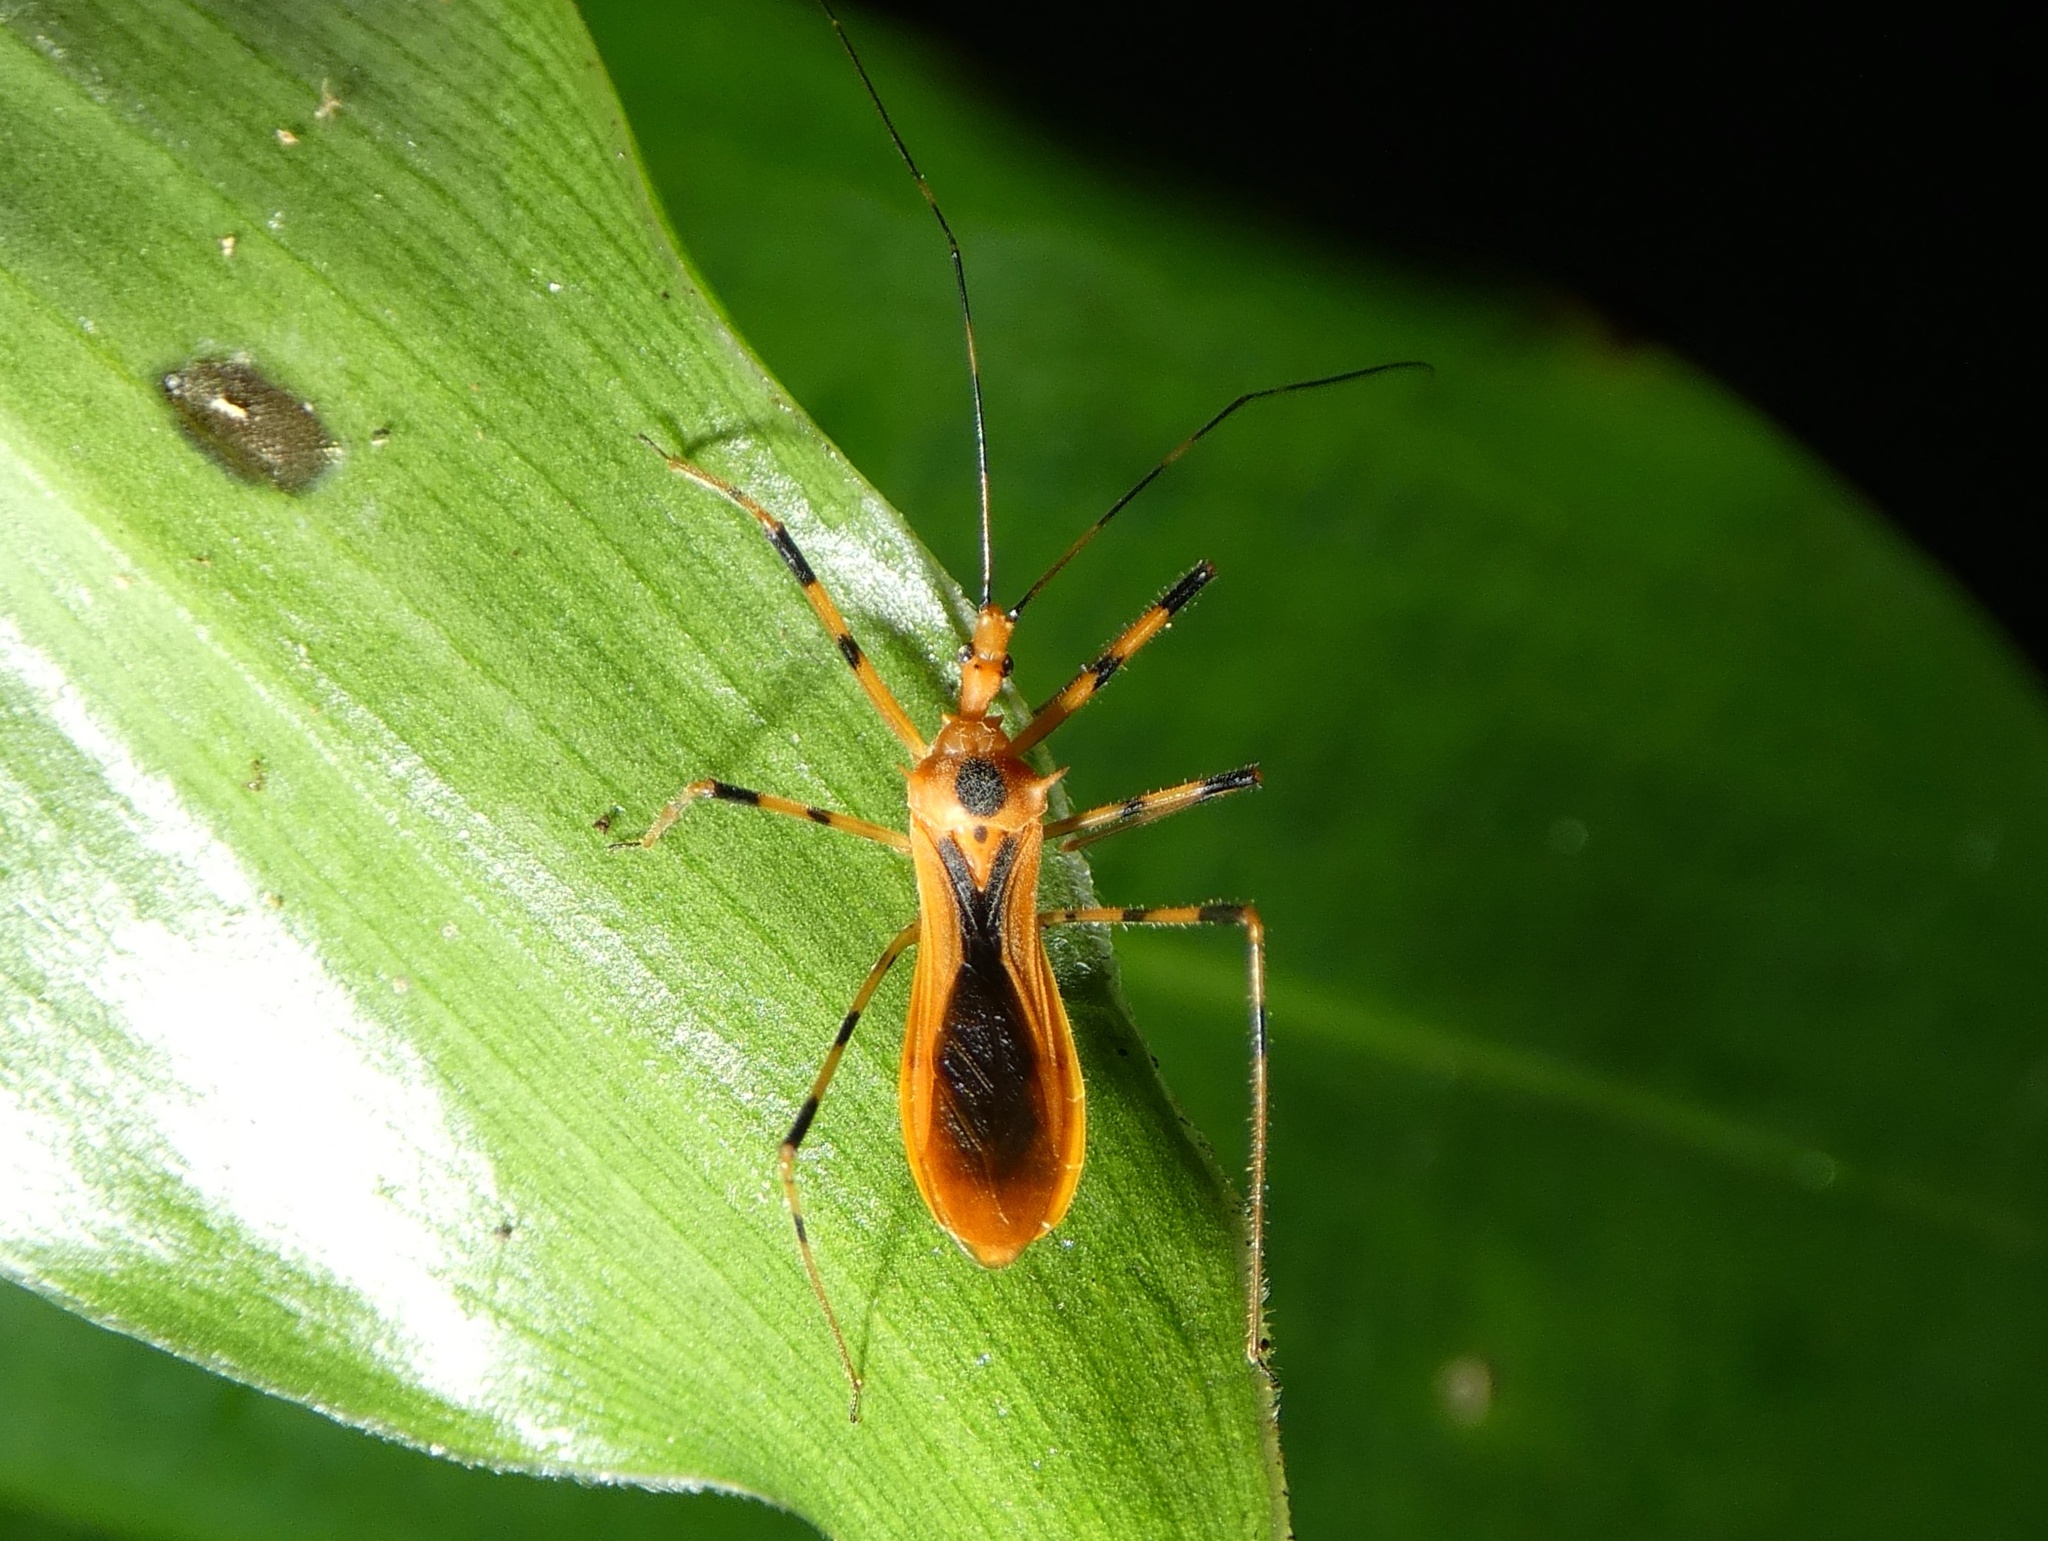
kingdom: Animalia
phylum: Arthropoda
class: Insecta
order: Hemiptera
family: Reduviidae
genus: Euagoras
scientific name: Euagoras dorycus
